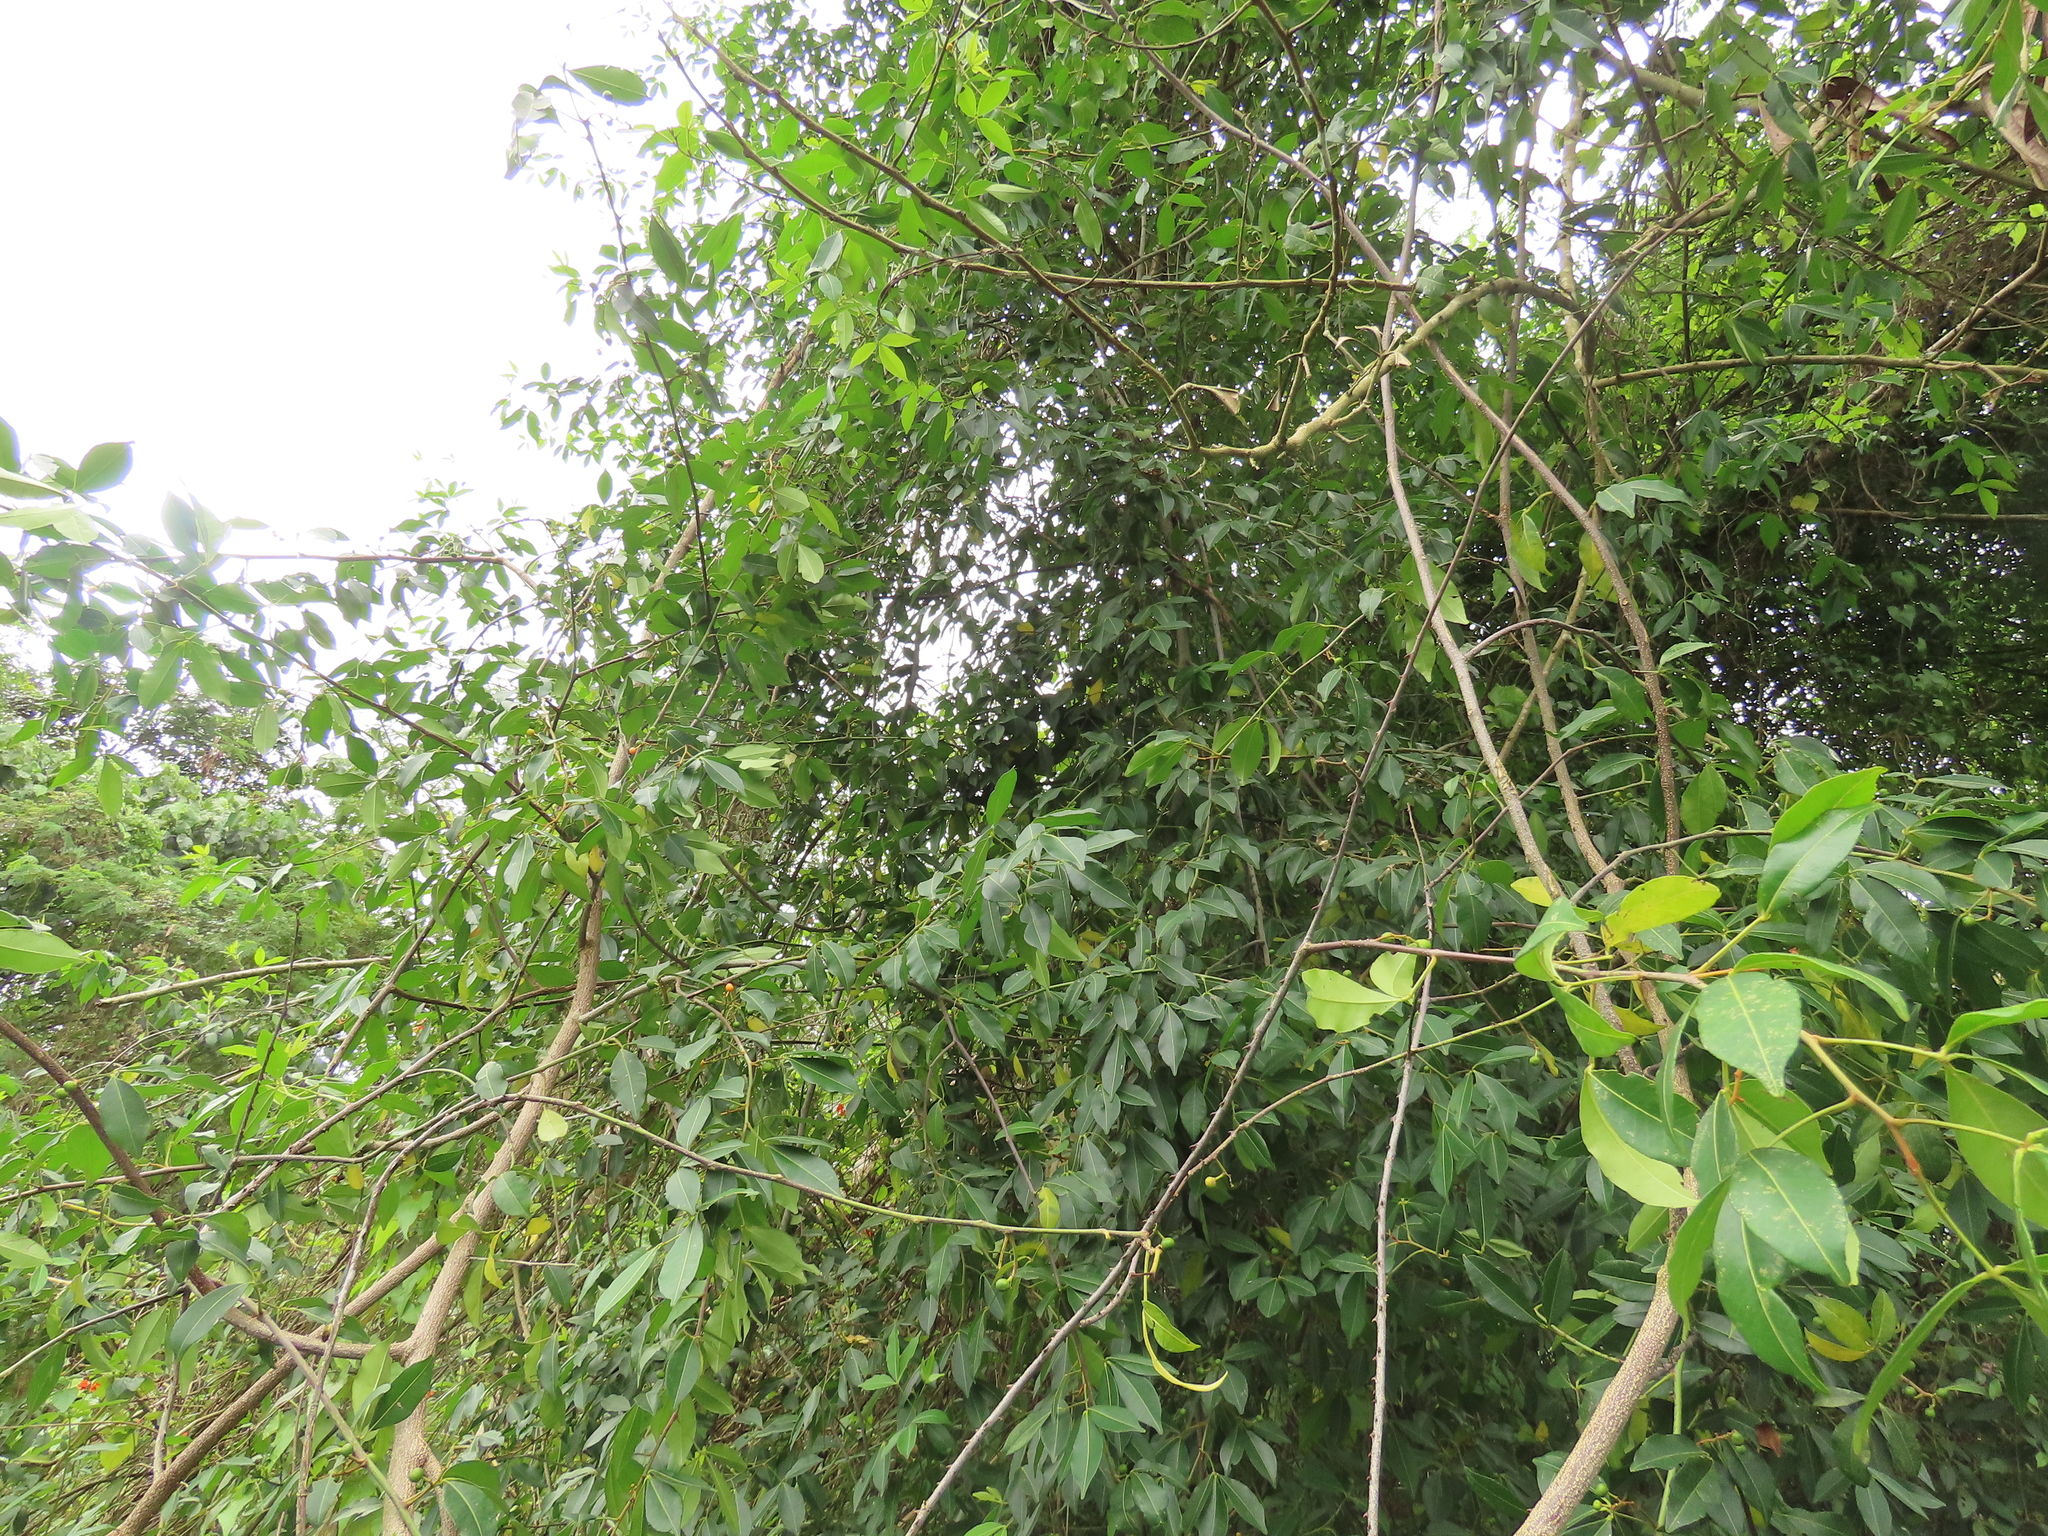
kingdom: Plantae
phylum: Tracheophyta
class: Magnoliopsida
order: Sapindales
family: Rutaceae
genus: Zanthoxylum
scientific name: Zanthoxylum asiaticum
